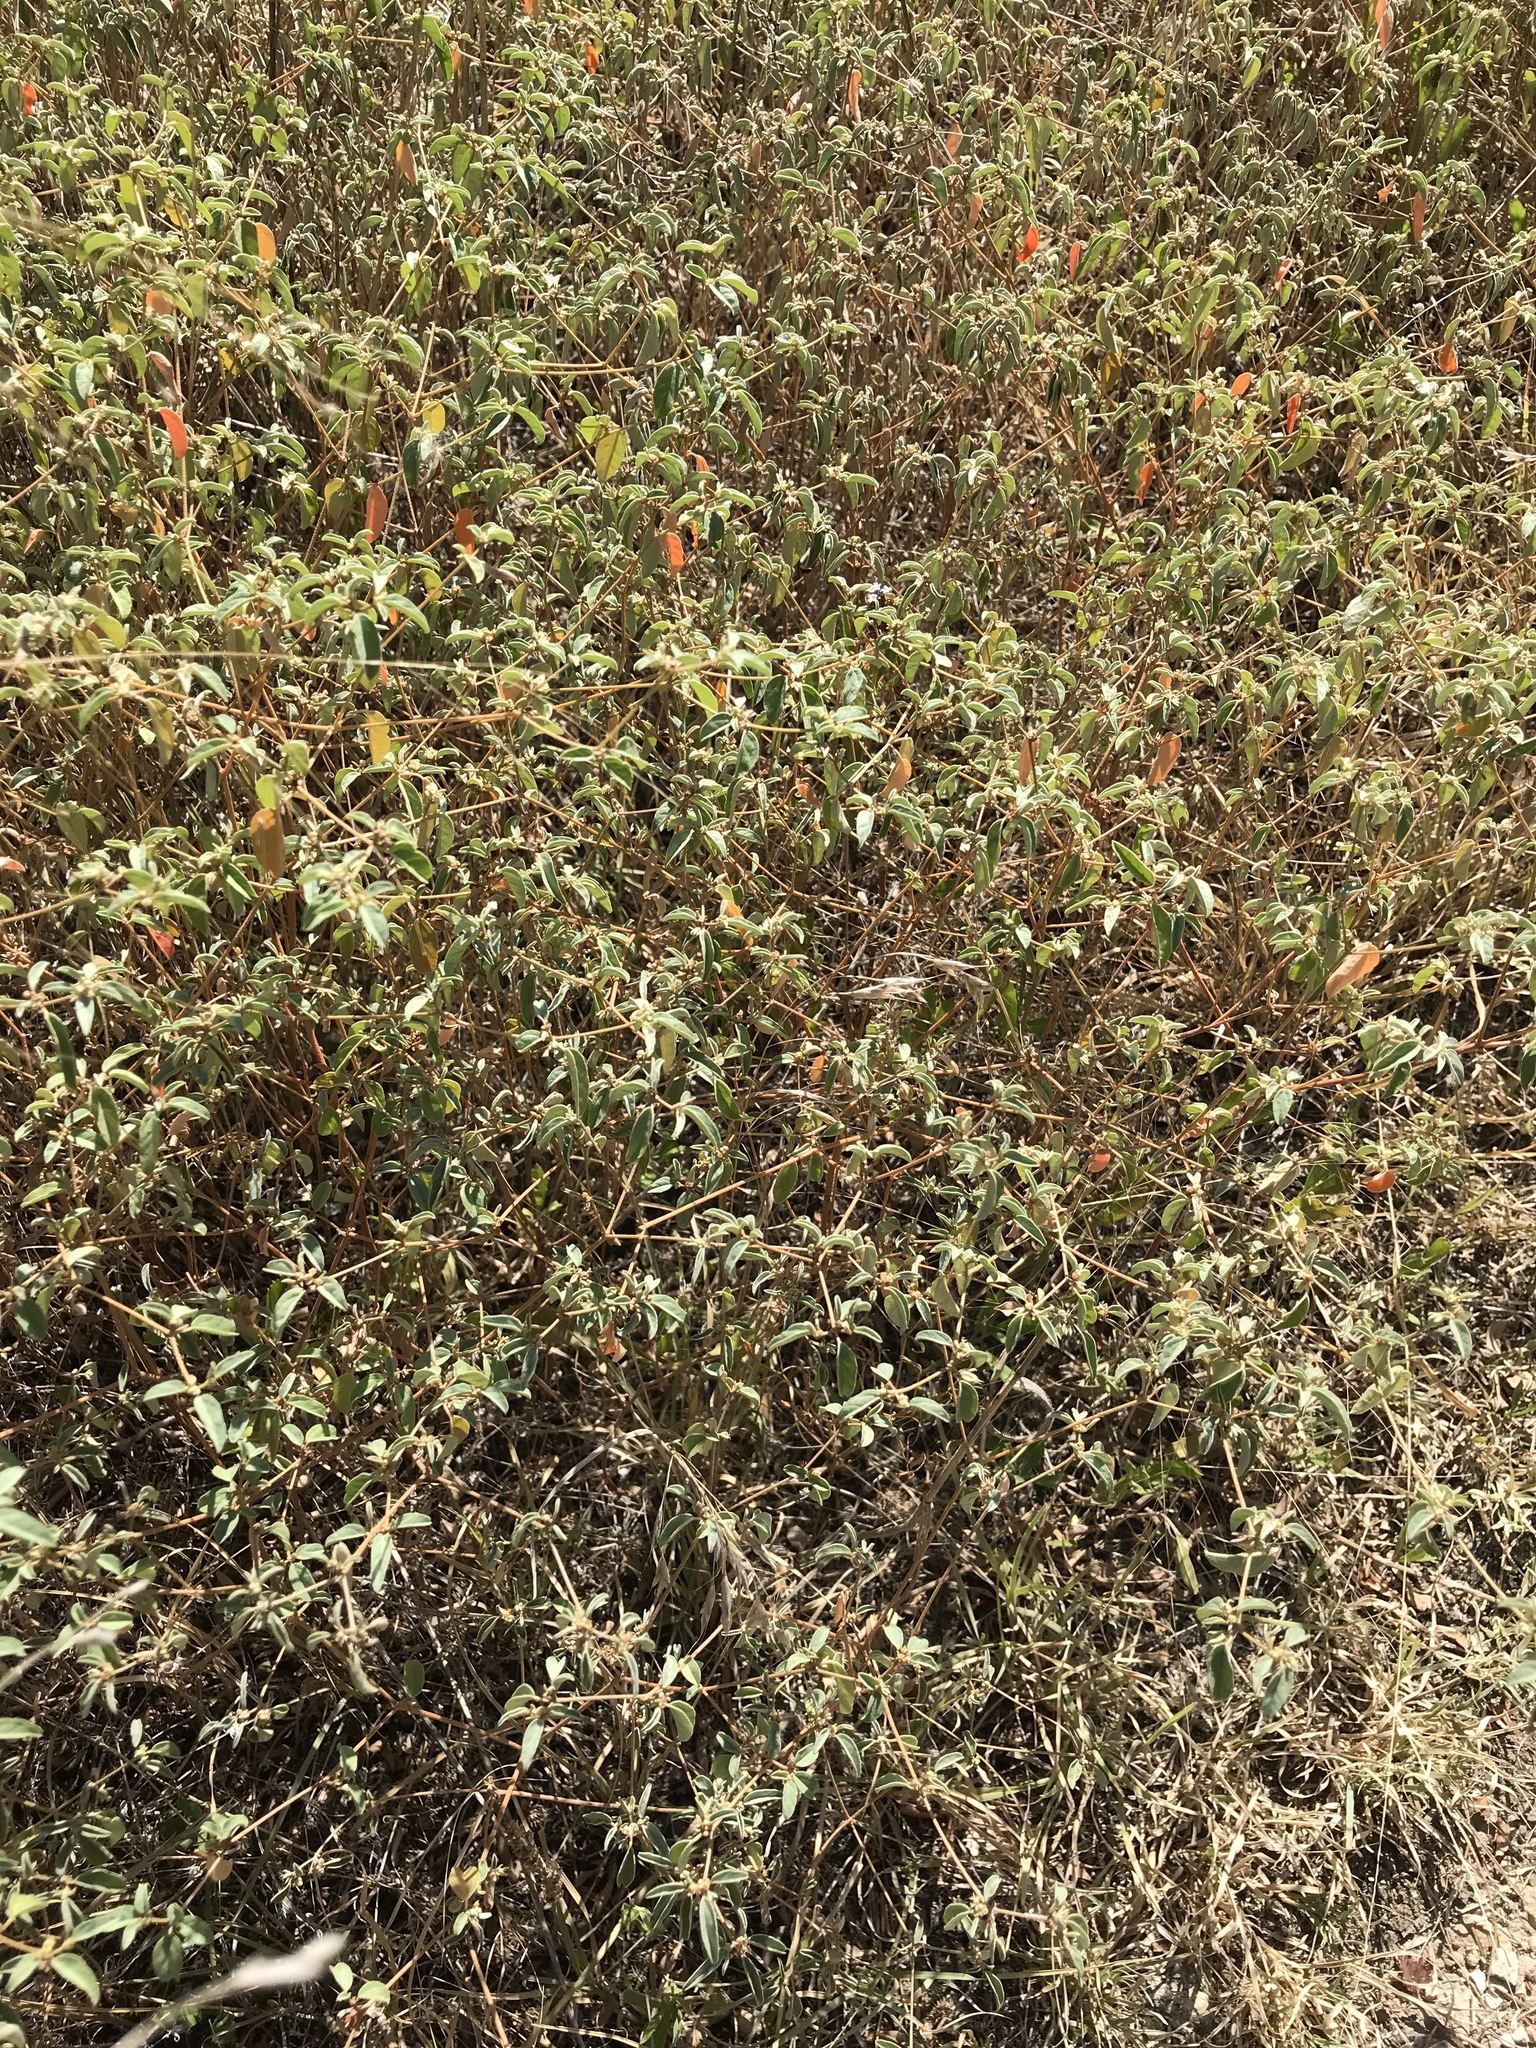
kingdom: Plantae
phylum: Tracheophyta
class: Magnoliopsida
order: Malpighiales
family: Euphorbiaceae
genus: Croton
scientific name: Croton monanthogynus
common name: One-seed croton
